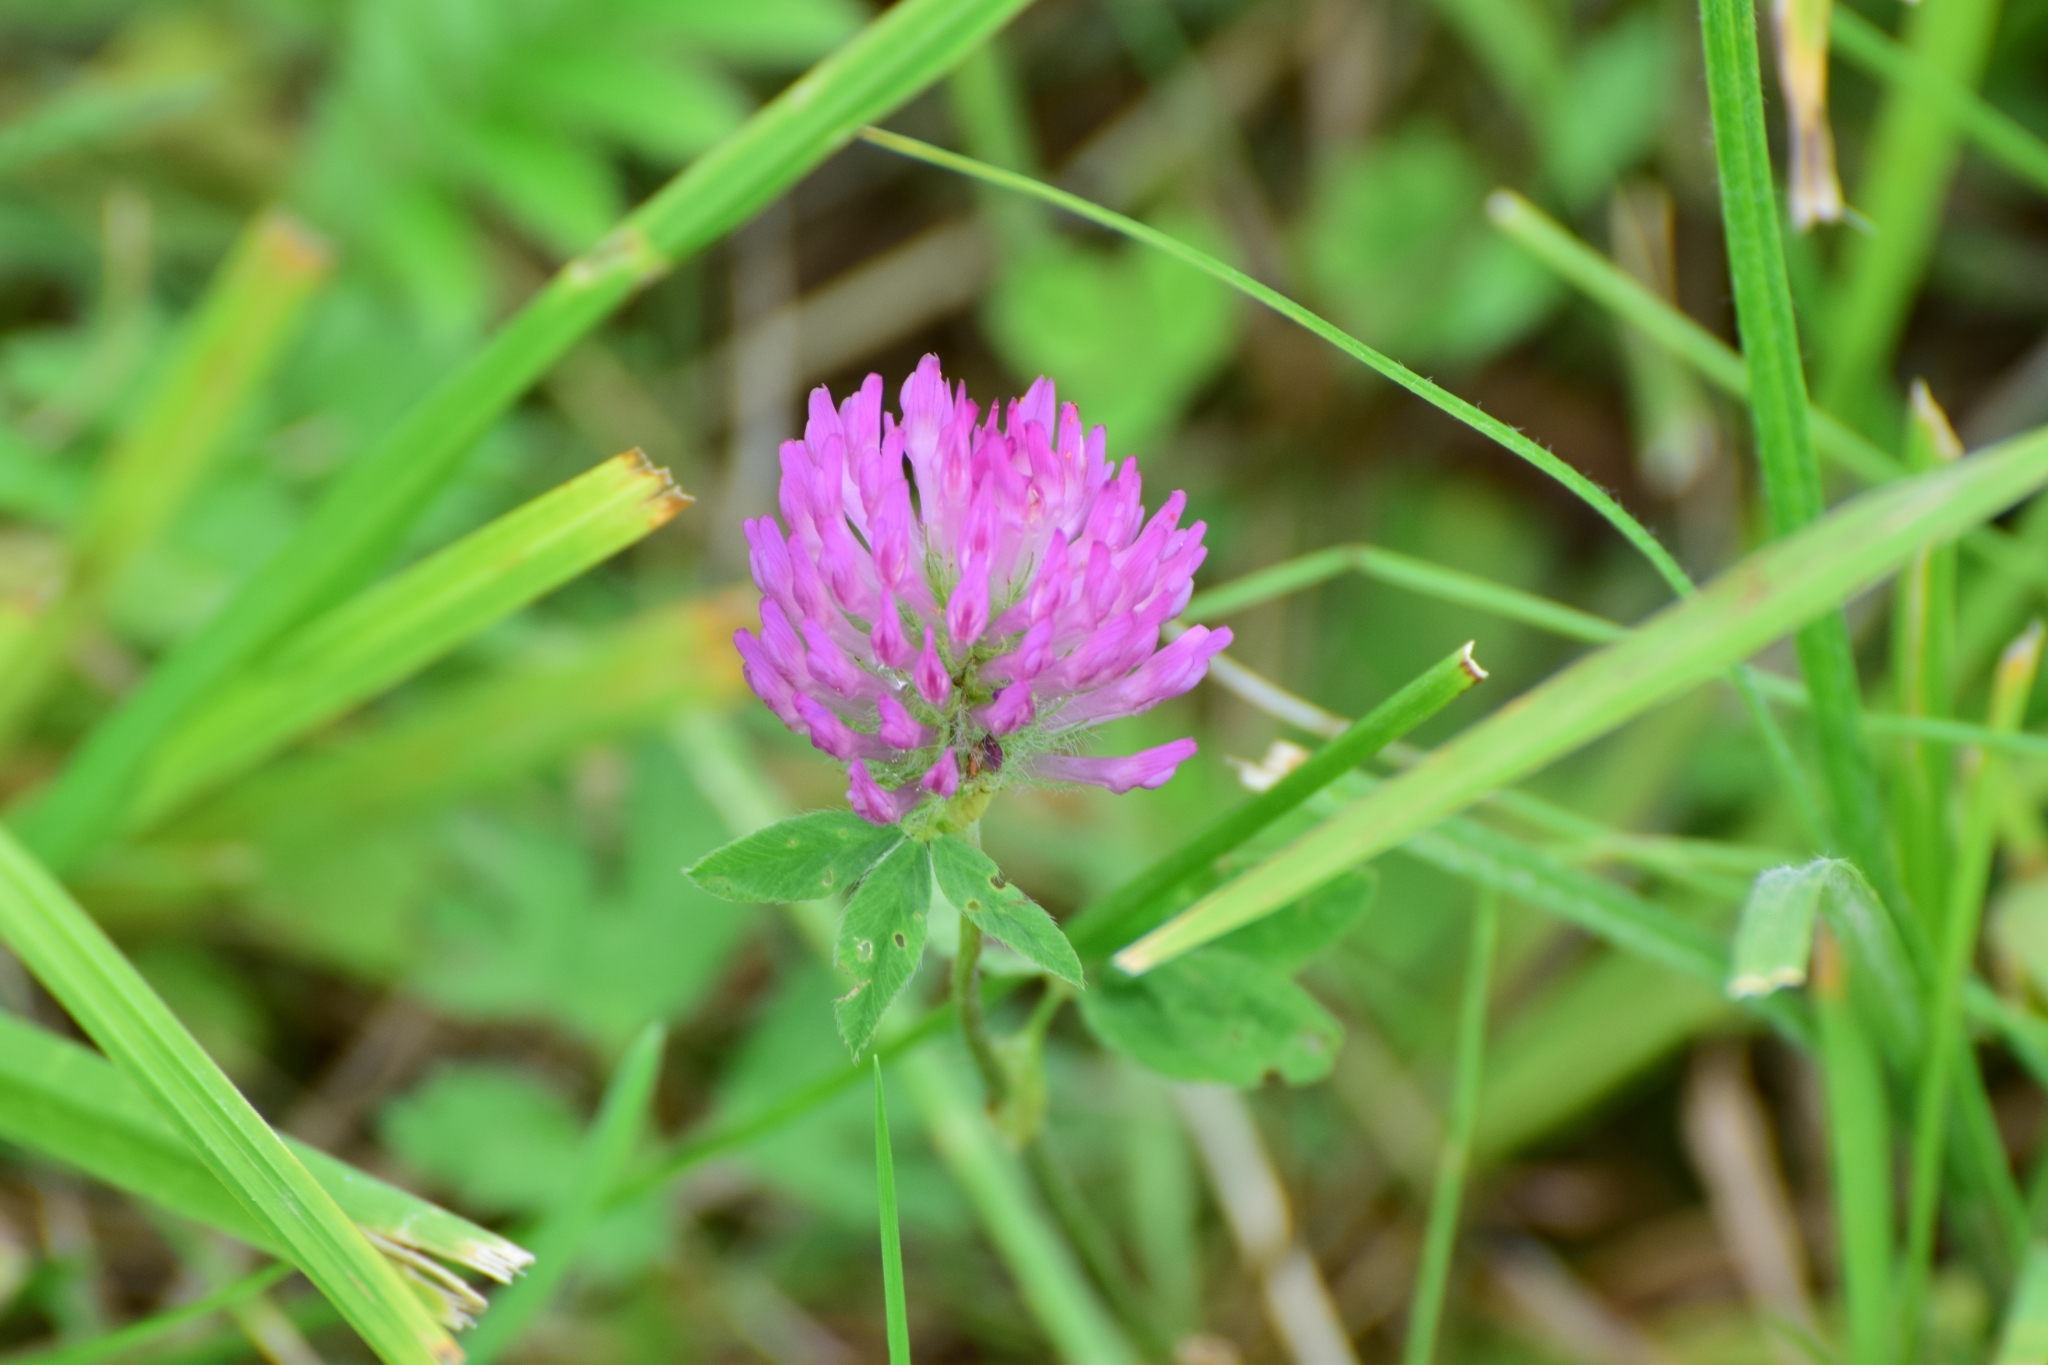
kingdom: Plantae
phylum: Tracheophyta
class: Magnoliopsida
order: Fabales
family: Fabaceae
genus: Trifolium
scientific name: Trifolium pratense
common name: Red clover
